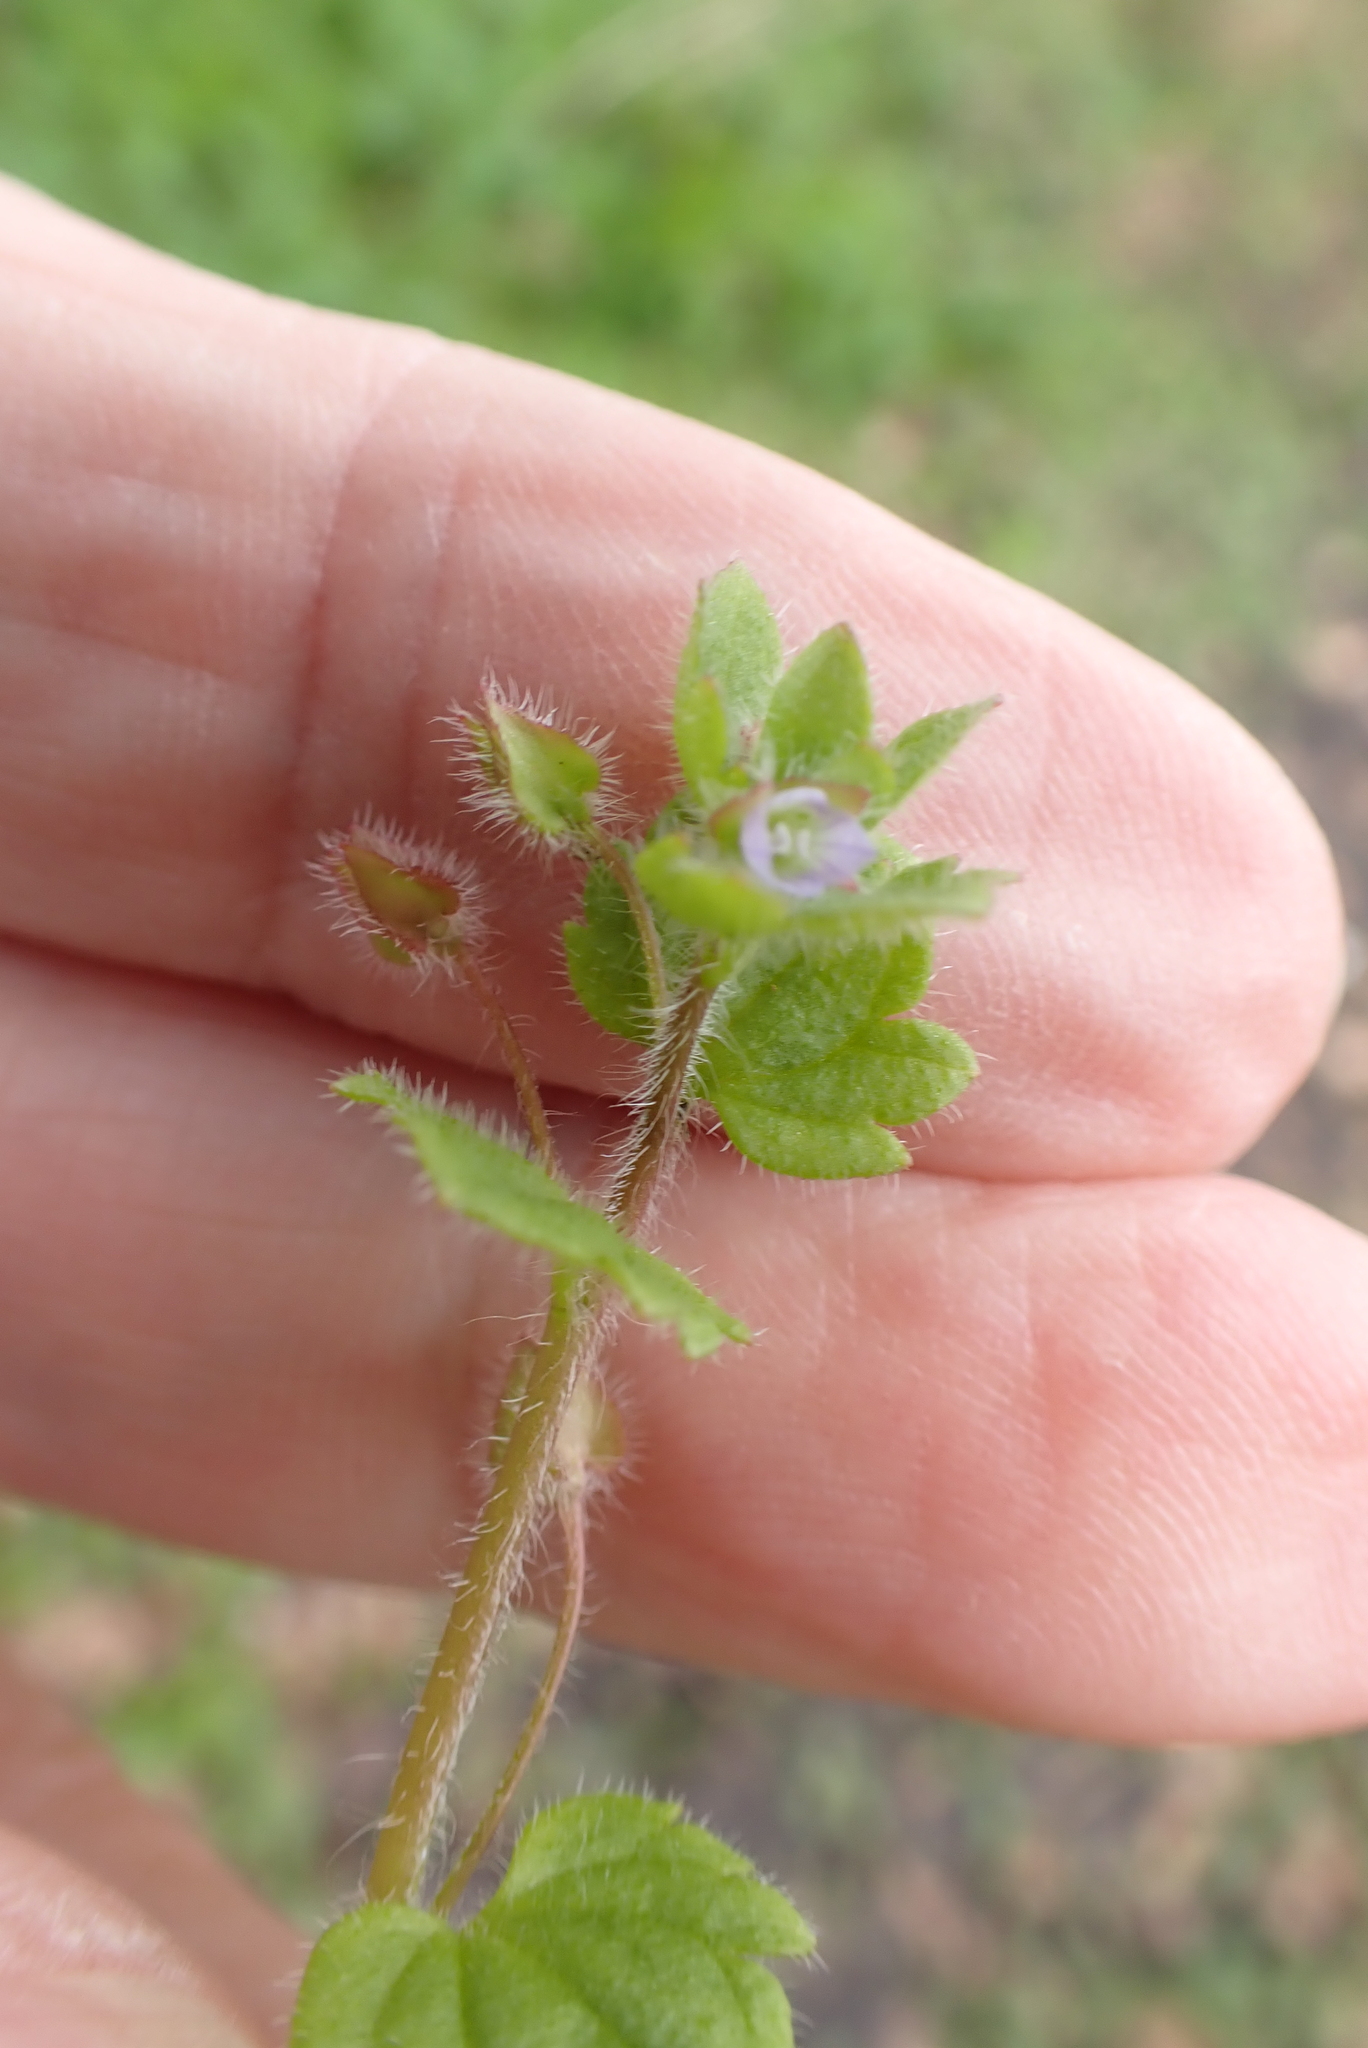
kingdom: Plantae
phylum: Tracheophyta
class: Magnoliopsida
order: Lamiales
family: Plantaginaceae
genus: Veronica
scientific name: Veronica sublobata
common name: False ivy-leaved speedwell
